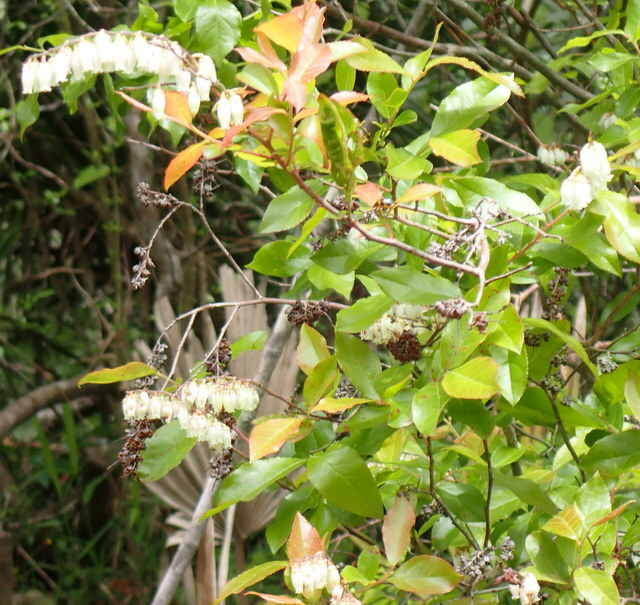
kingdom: Plantae
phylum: Tracheophyta
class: Magnoliopsida
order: Ericales
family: Ericaceae
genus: Eubotrys
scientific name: Eubotrys racemosa
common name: Fetterbush
